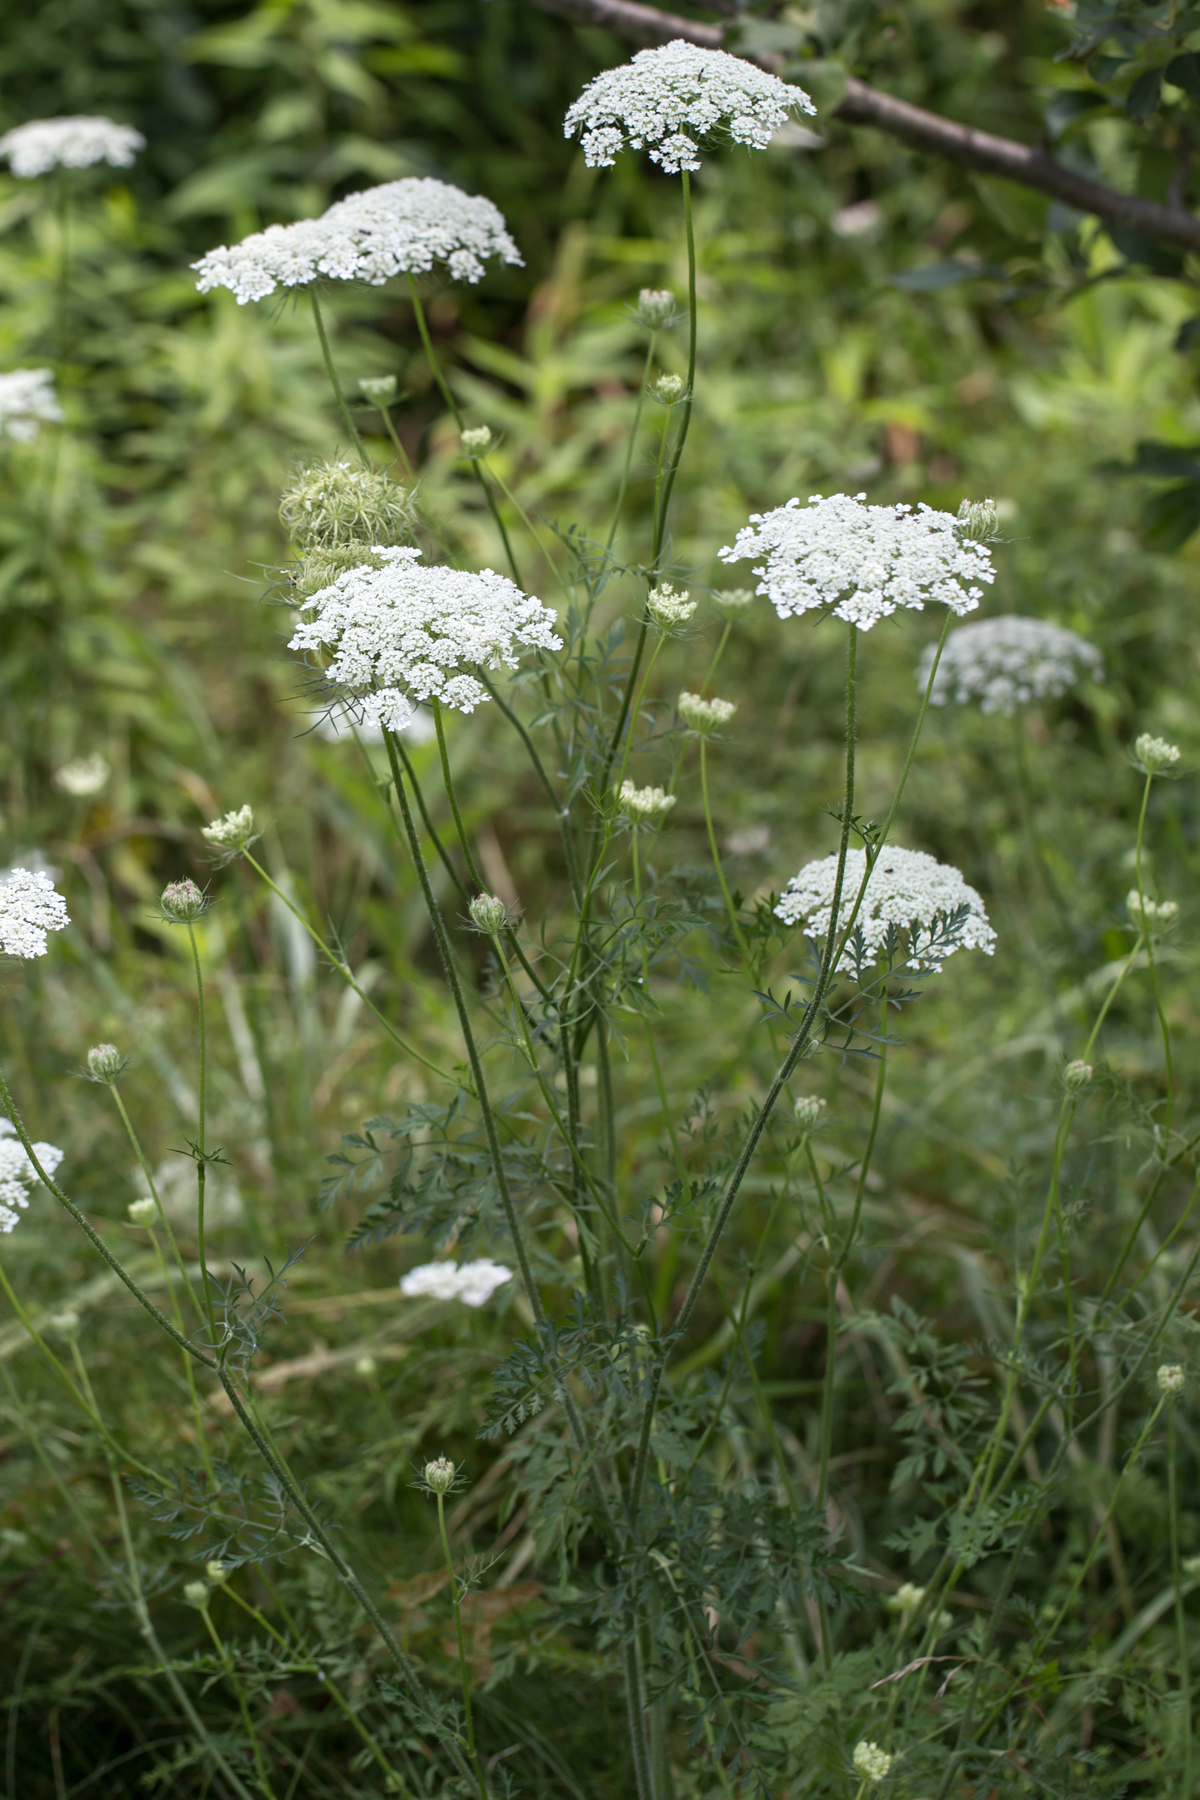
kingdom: Plantae
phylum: Tracheophyta
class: Magnoliopsida
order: Apiales
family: Apiaceae
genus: Daucus
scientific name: Daucus carota
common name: Wild carrot
